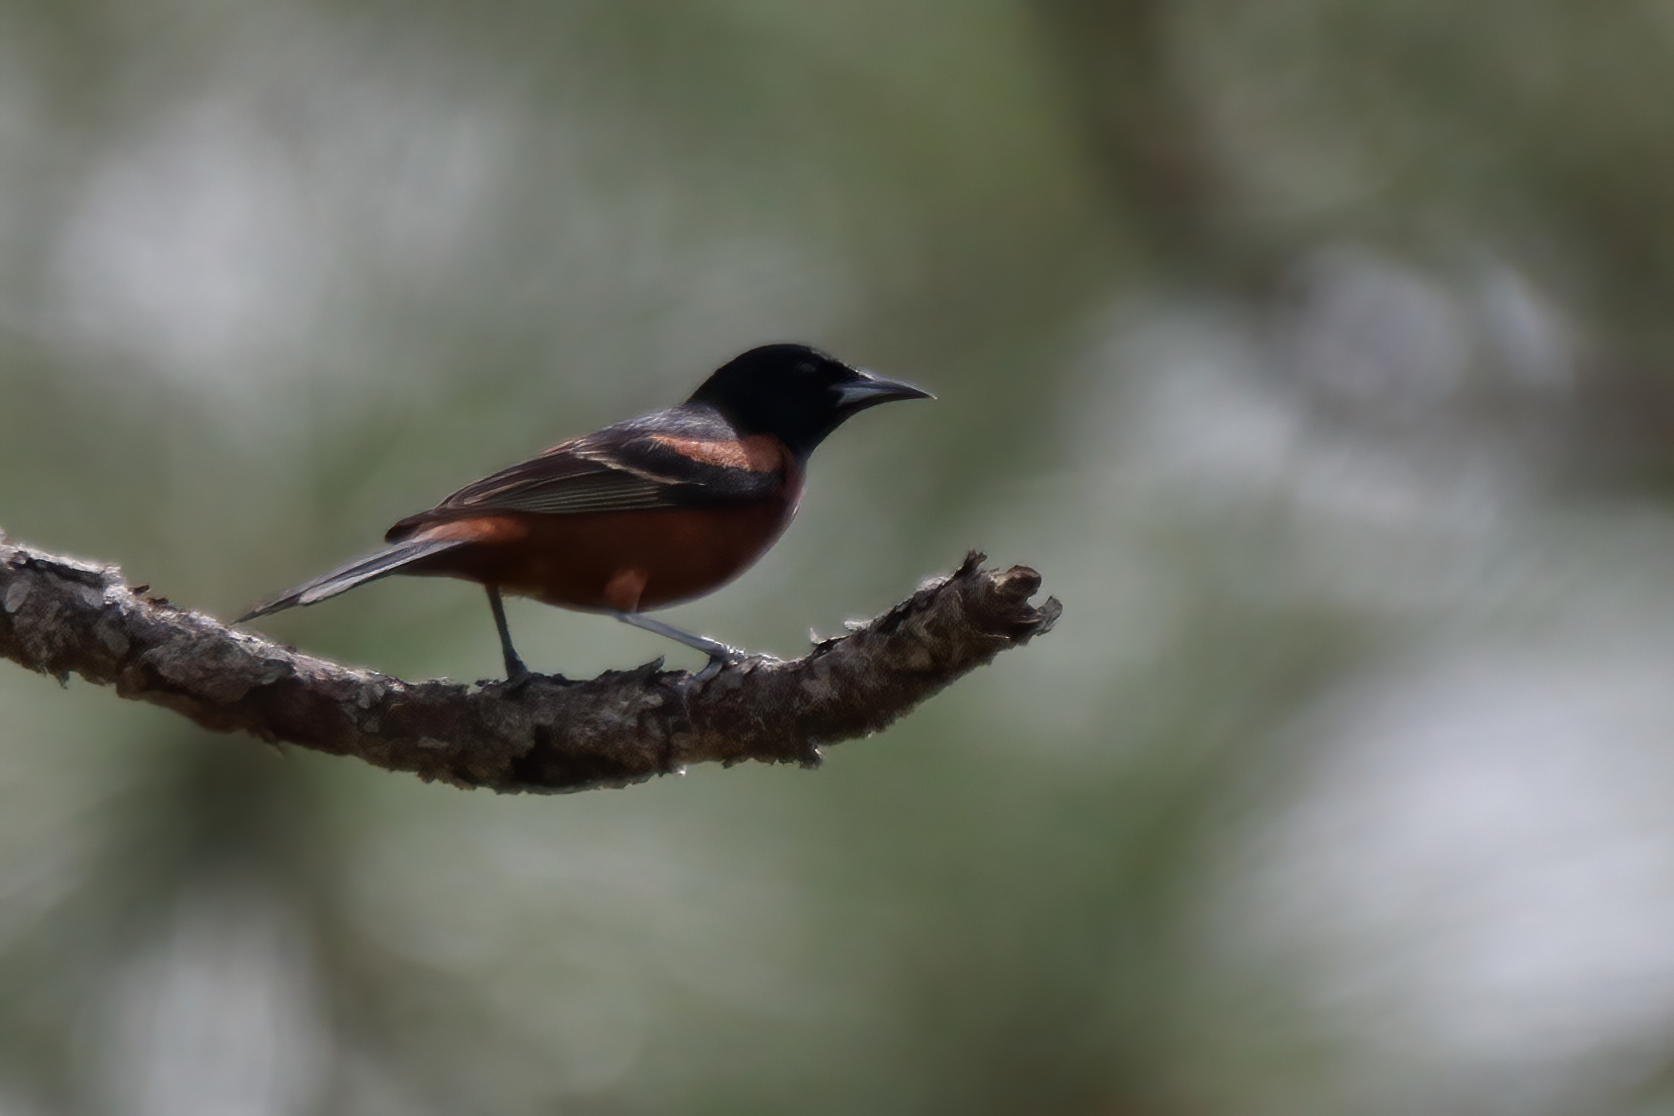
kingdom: Animalia
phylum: Chordata
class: Aves
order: Passeriformes
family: Icteridae
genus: Icterus
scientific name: Icterus spurius
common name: Orchard oriole
